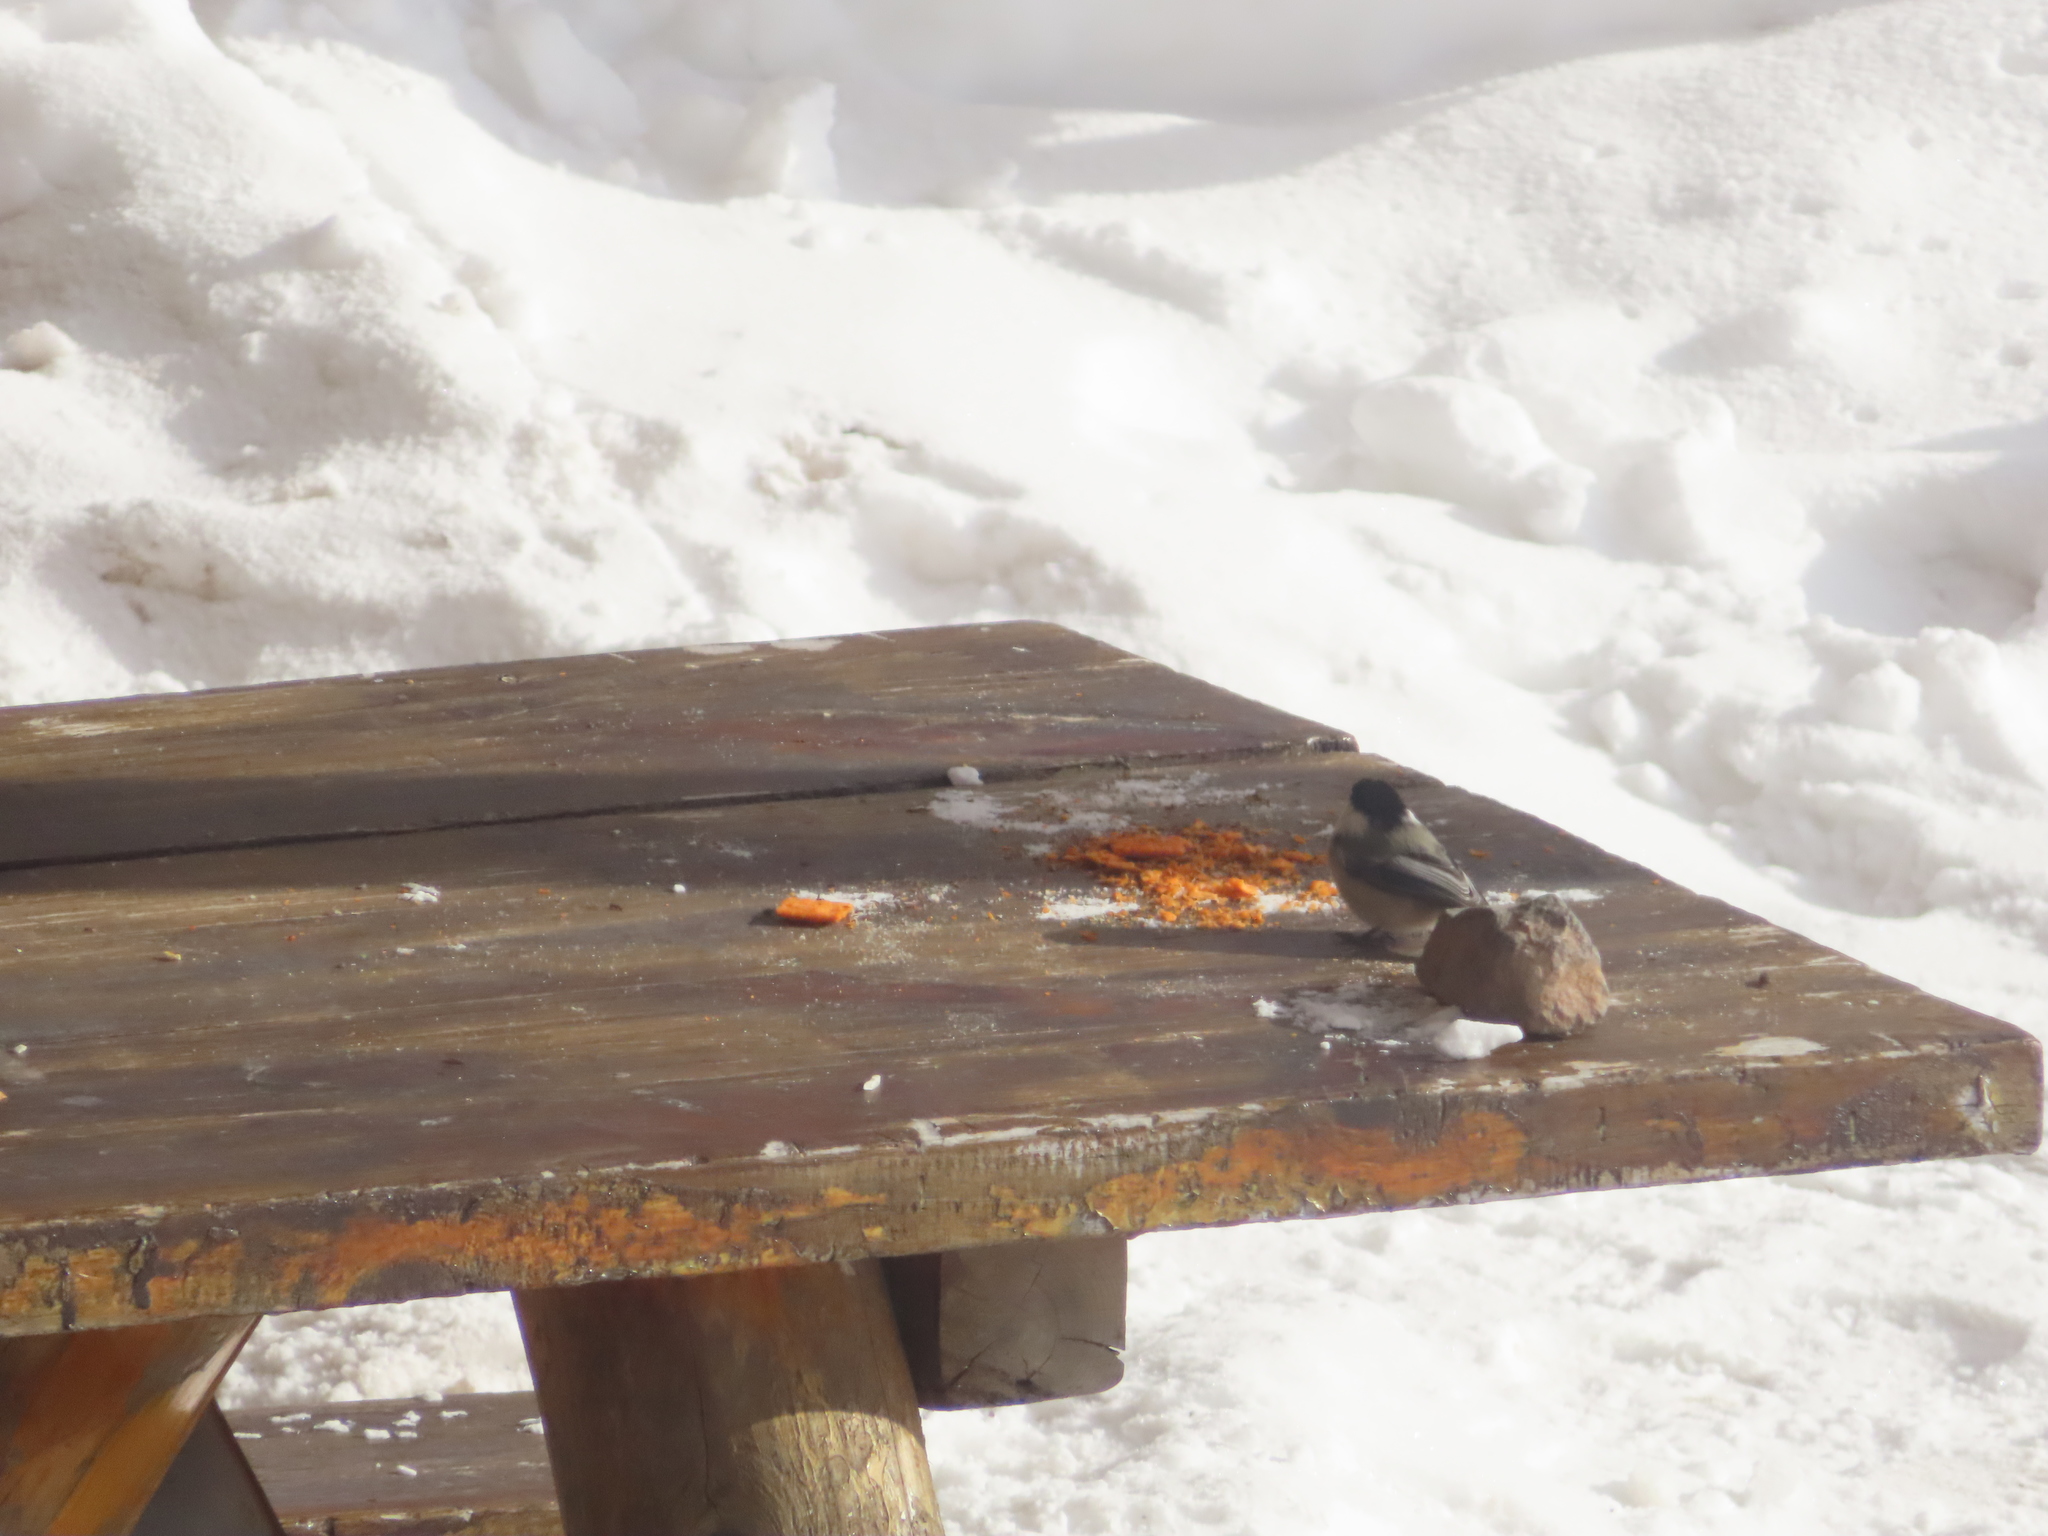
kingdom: Animalia
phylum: Chordata
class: Aves
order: Passeriformes
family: Paridae
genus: Poecile
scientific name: Poecile atricapillus
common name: Black-capped chickadee
